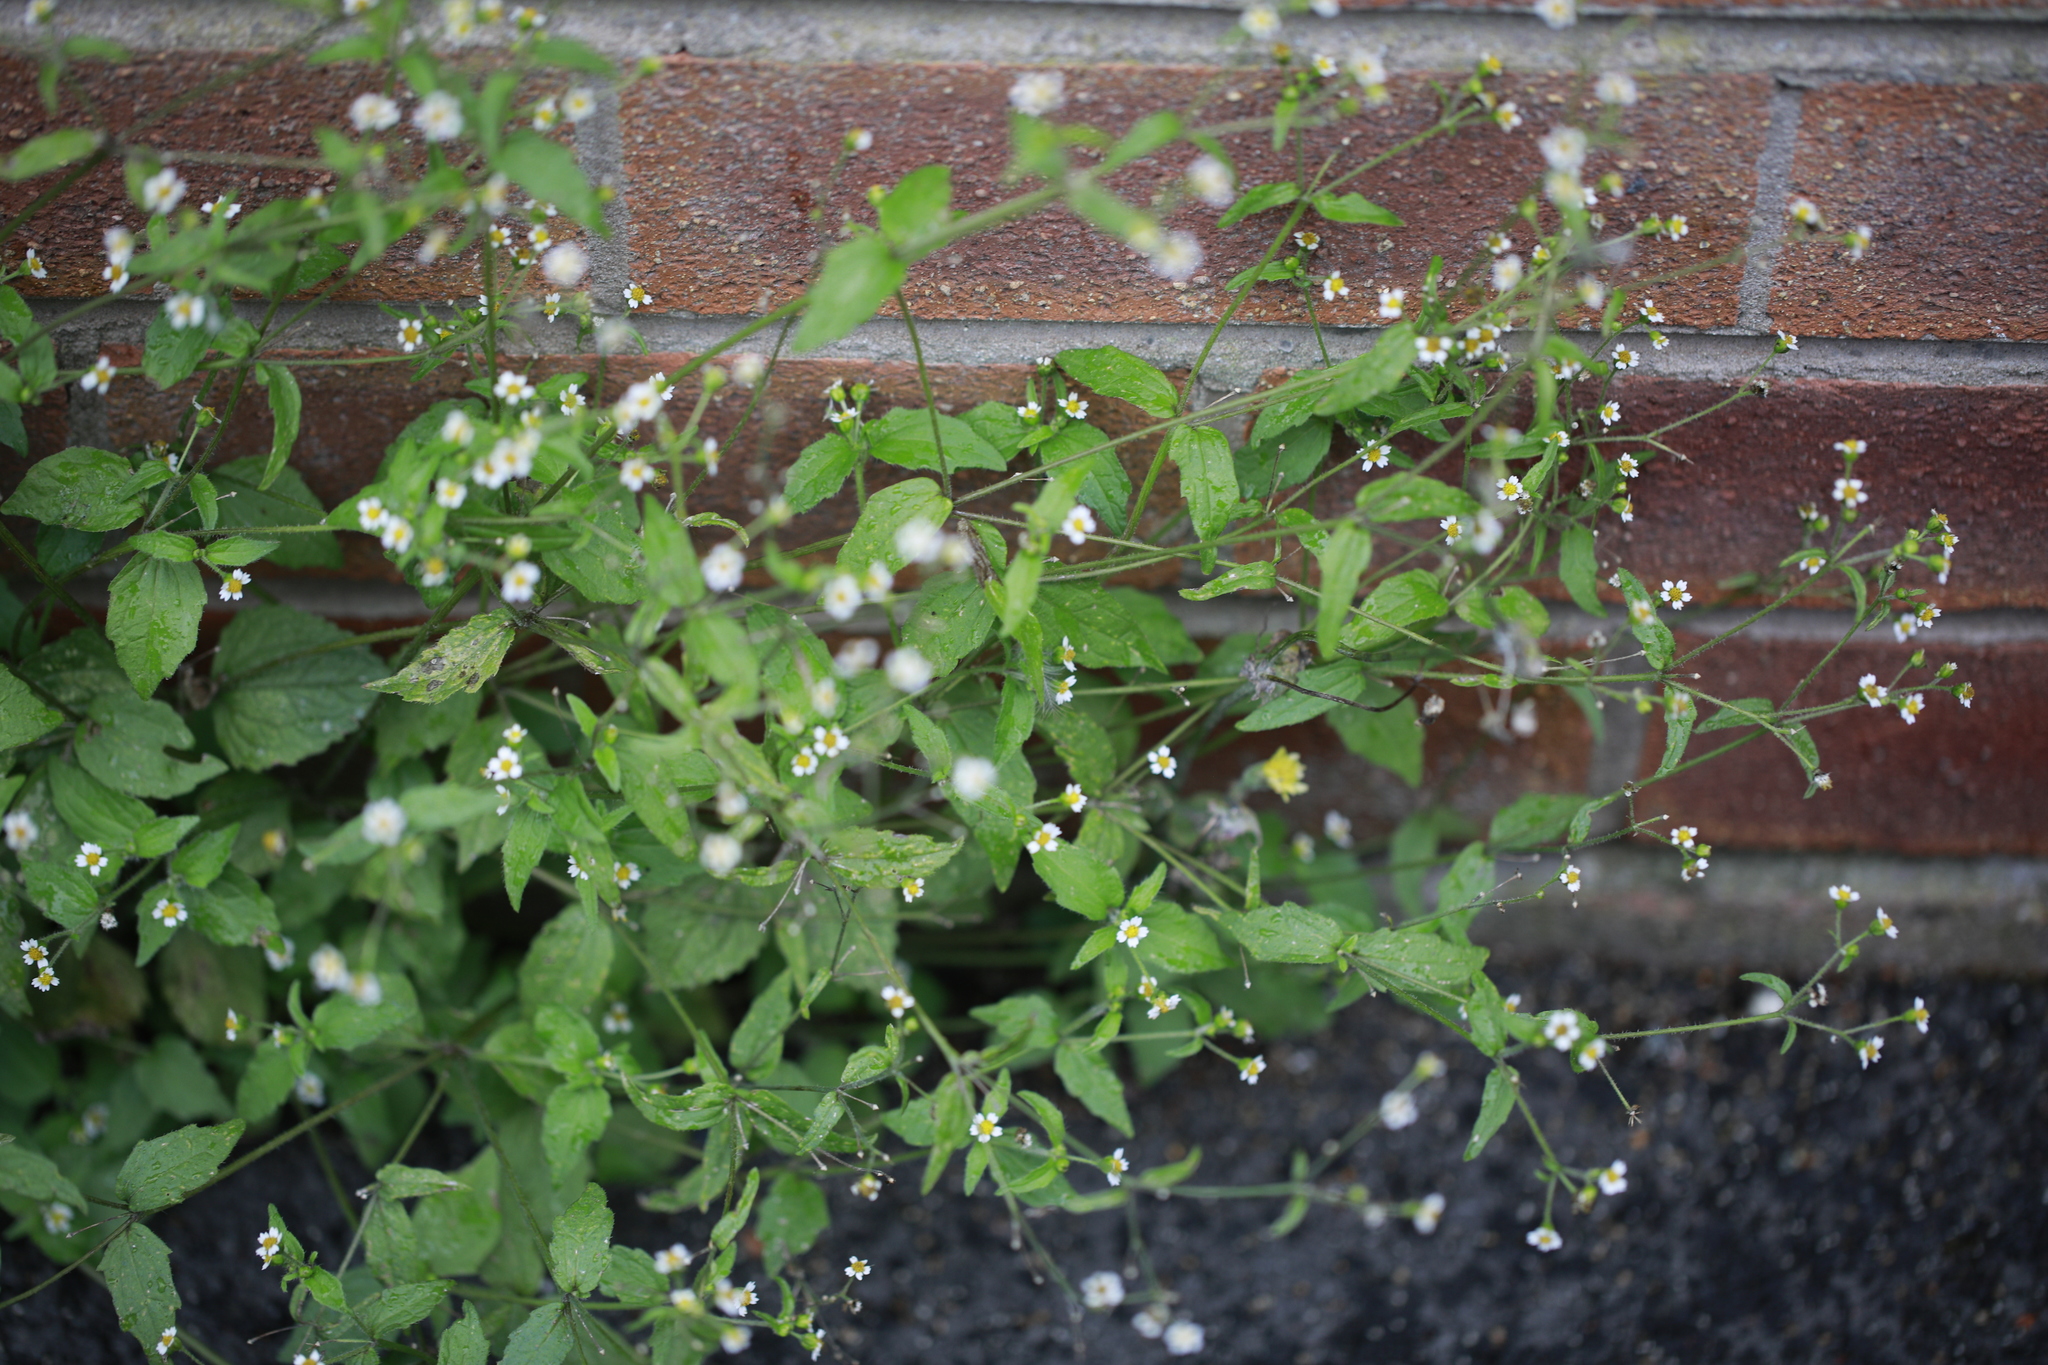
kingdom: Plantae
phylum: Tracheophyta
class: Magnoliopsida
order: Asterales
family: Asteraceae
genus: Galinsoga
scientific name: Galinsoga quadriradiata
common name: Shaggy soldier
